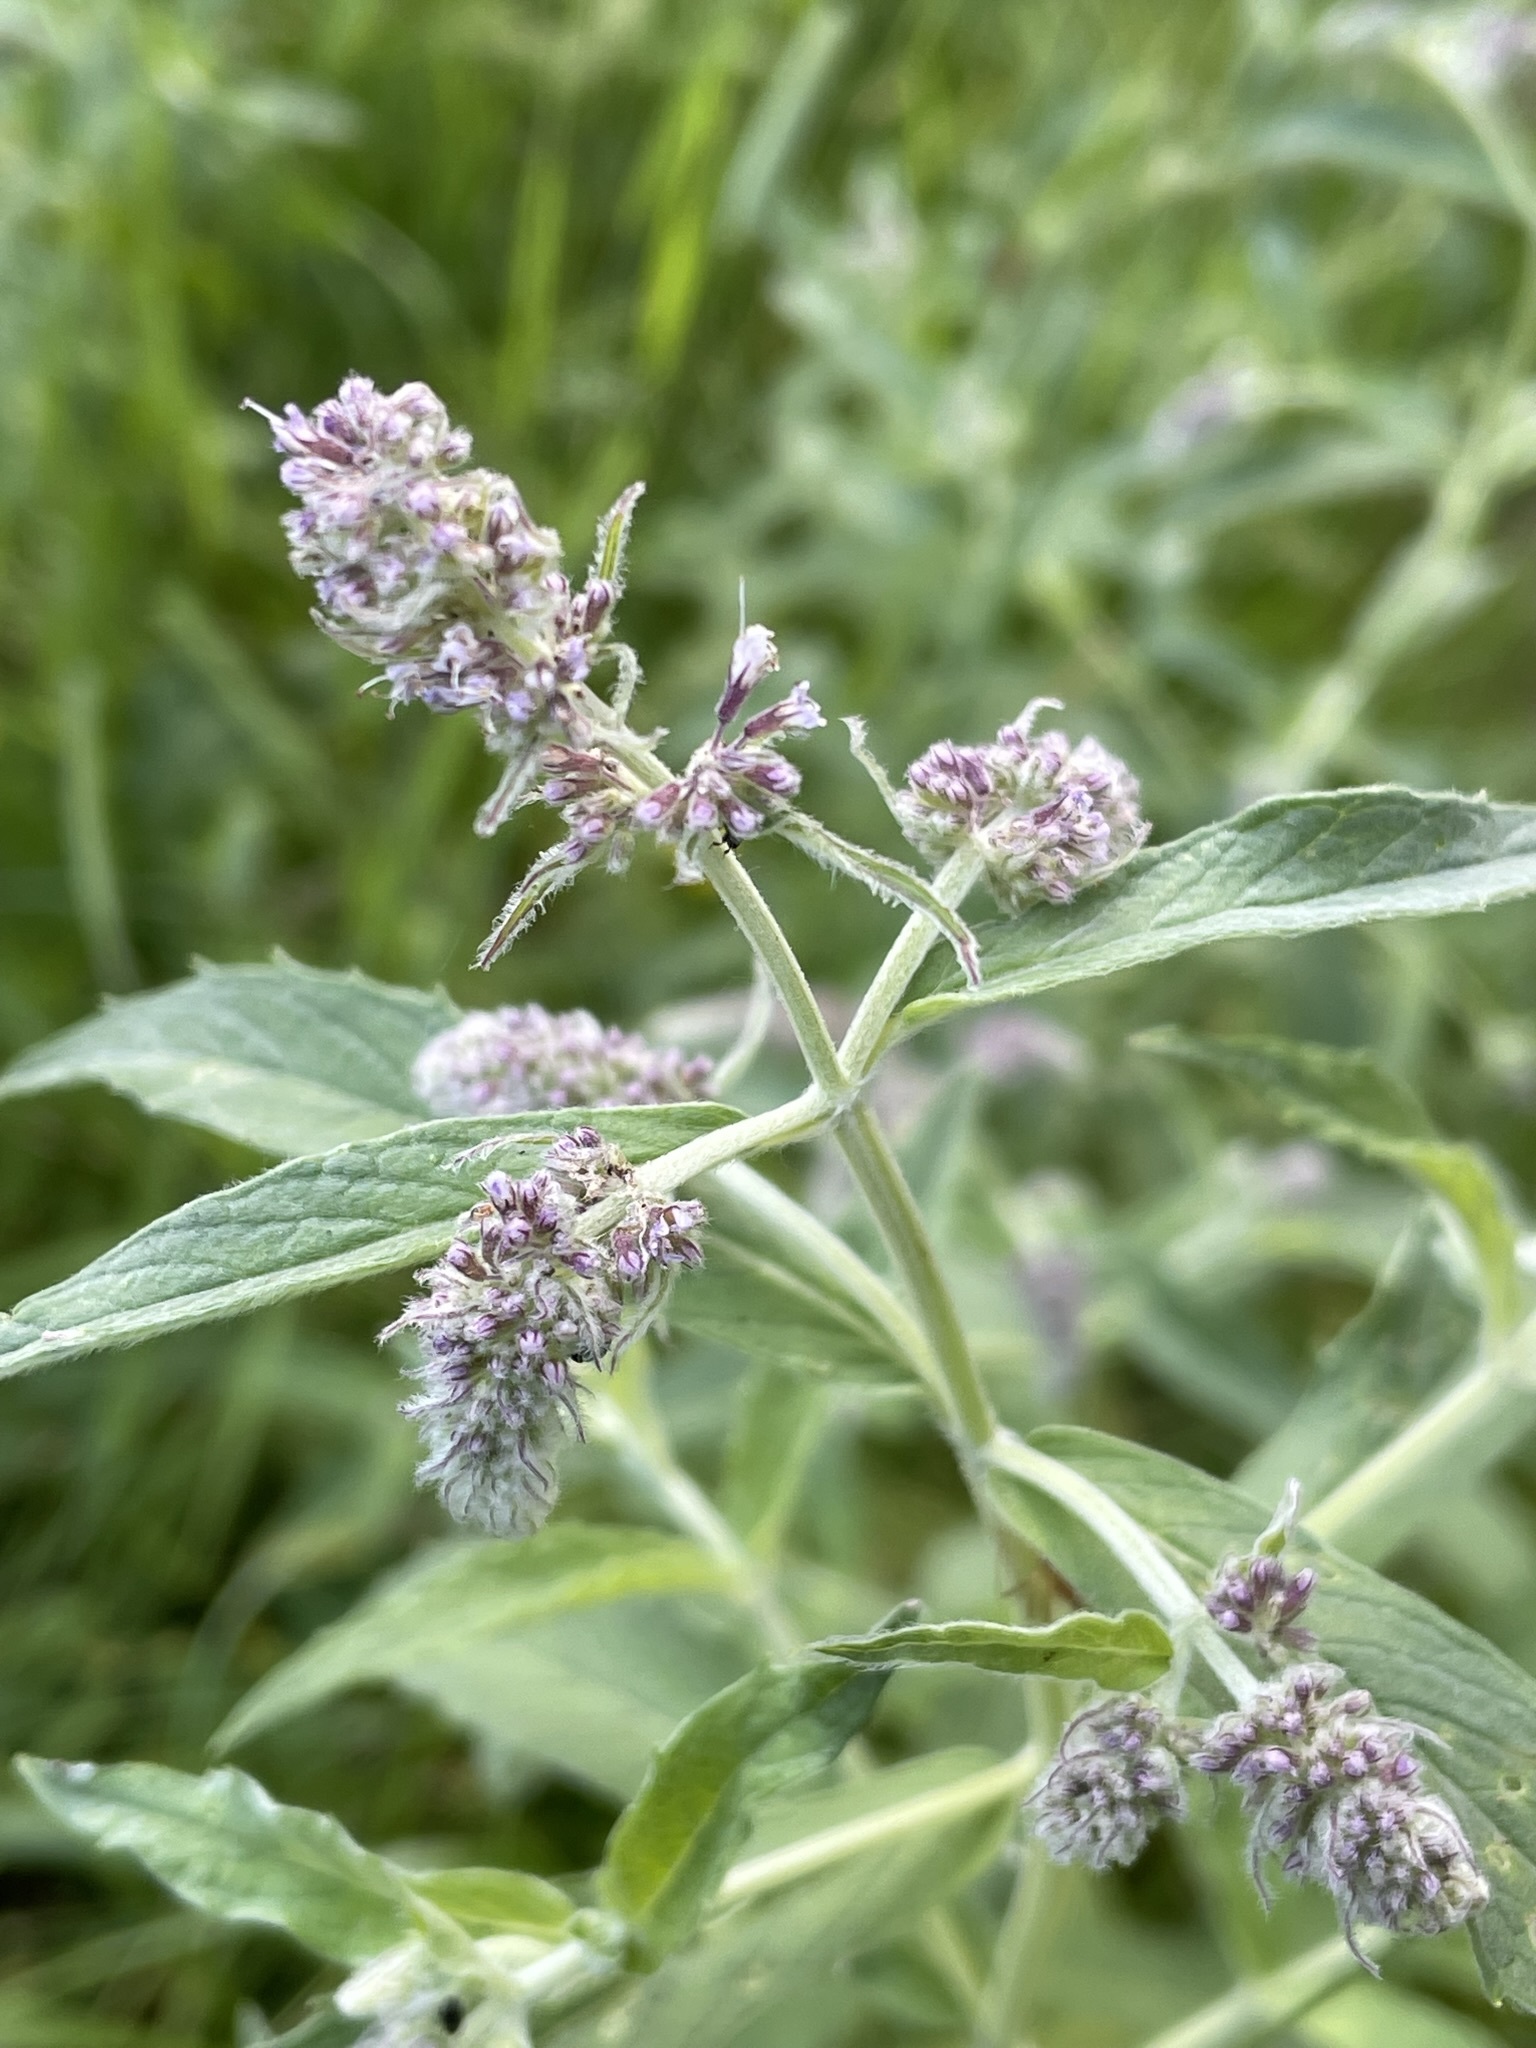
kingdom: Plantae
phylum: Tracheophyta
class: Magnoliopsida
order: Lamiales
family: Lamiaceae
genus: Mentha
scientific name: Mentha longifolia
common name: Horse mint
